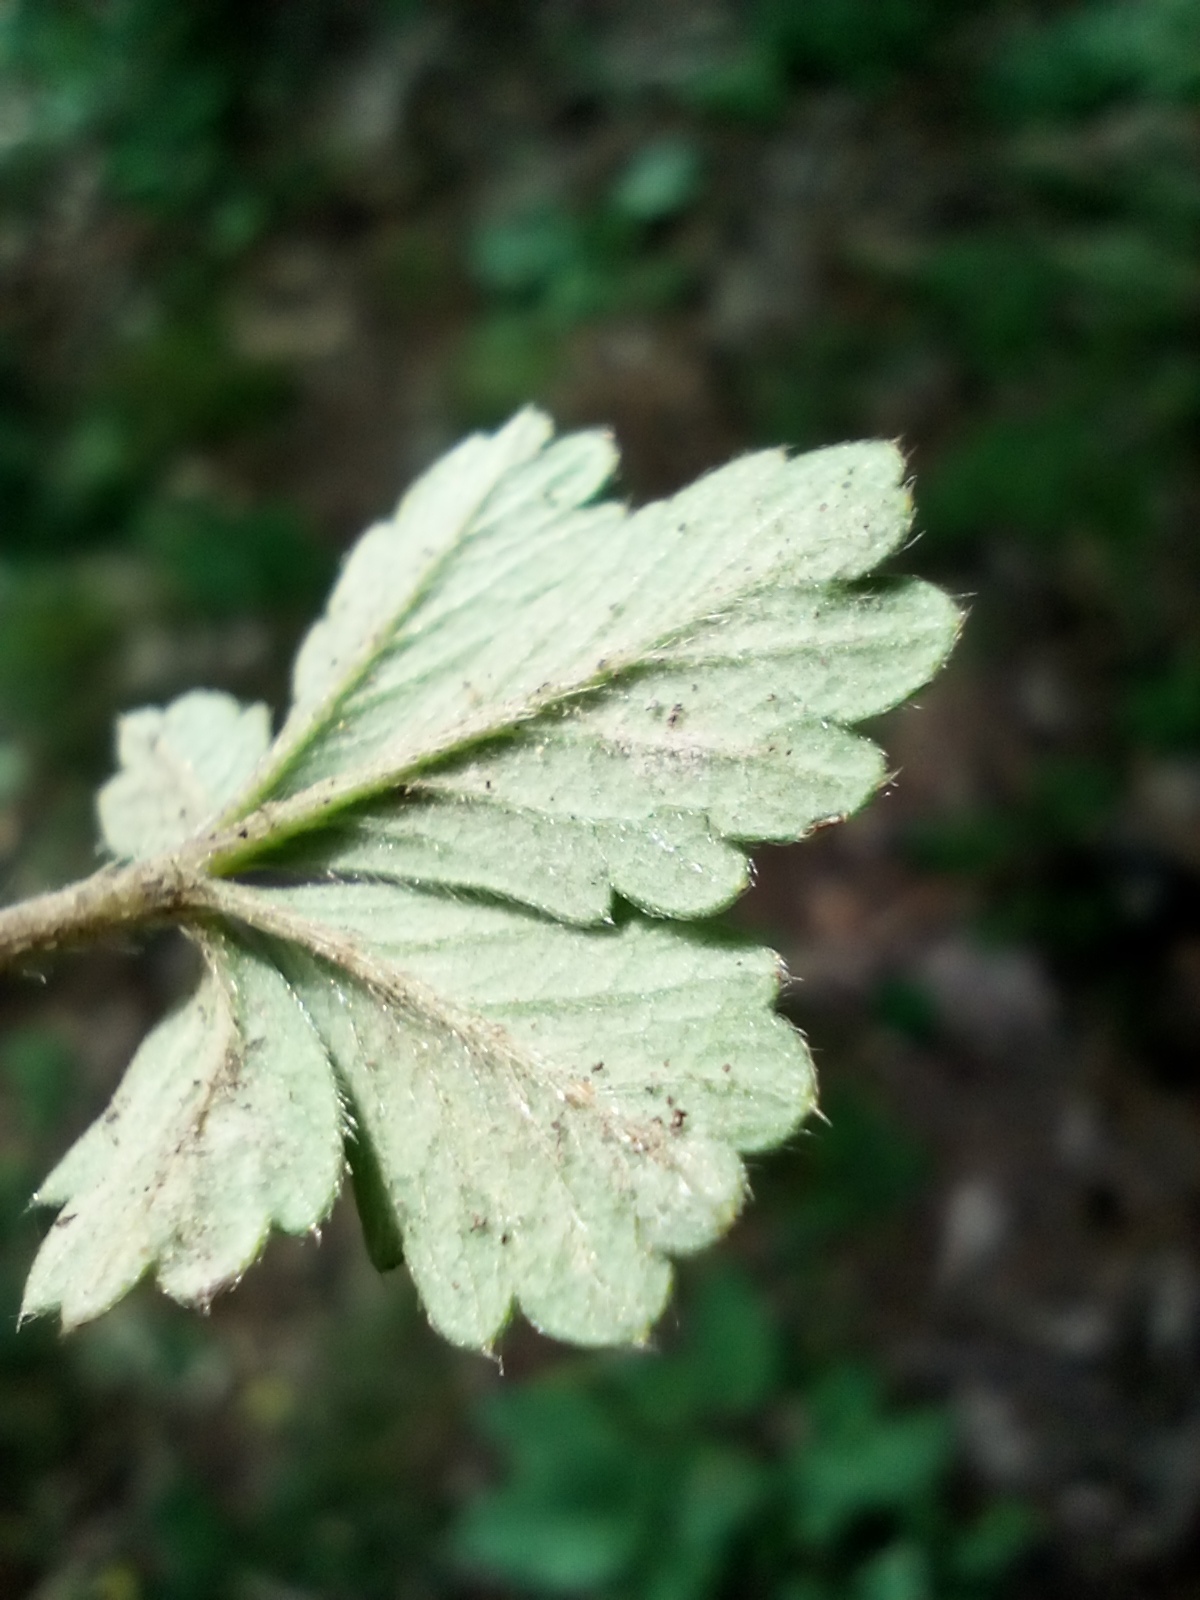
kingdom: Plantae
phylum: Tracheophyta
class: Magnoliopsida
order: Rosales
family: Rosaceae
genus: Potentilla
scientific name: Potentilla incana
